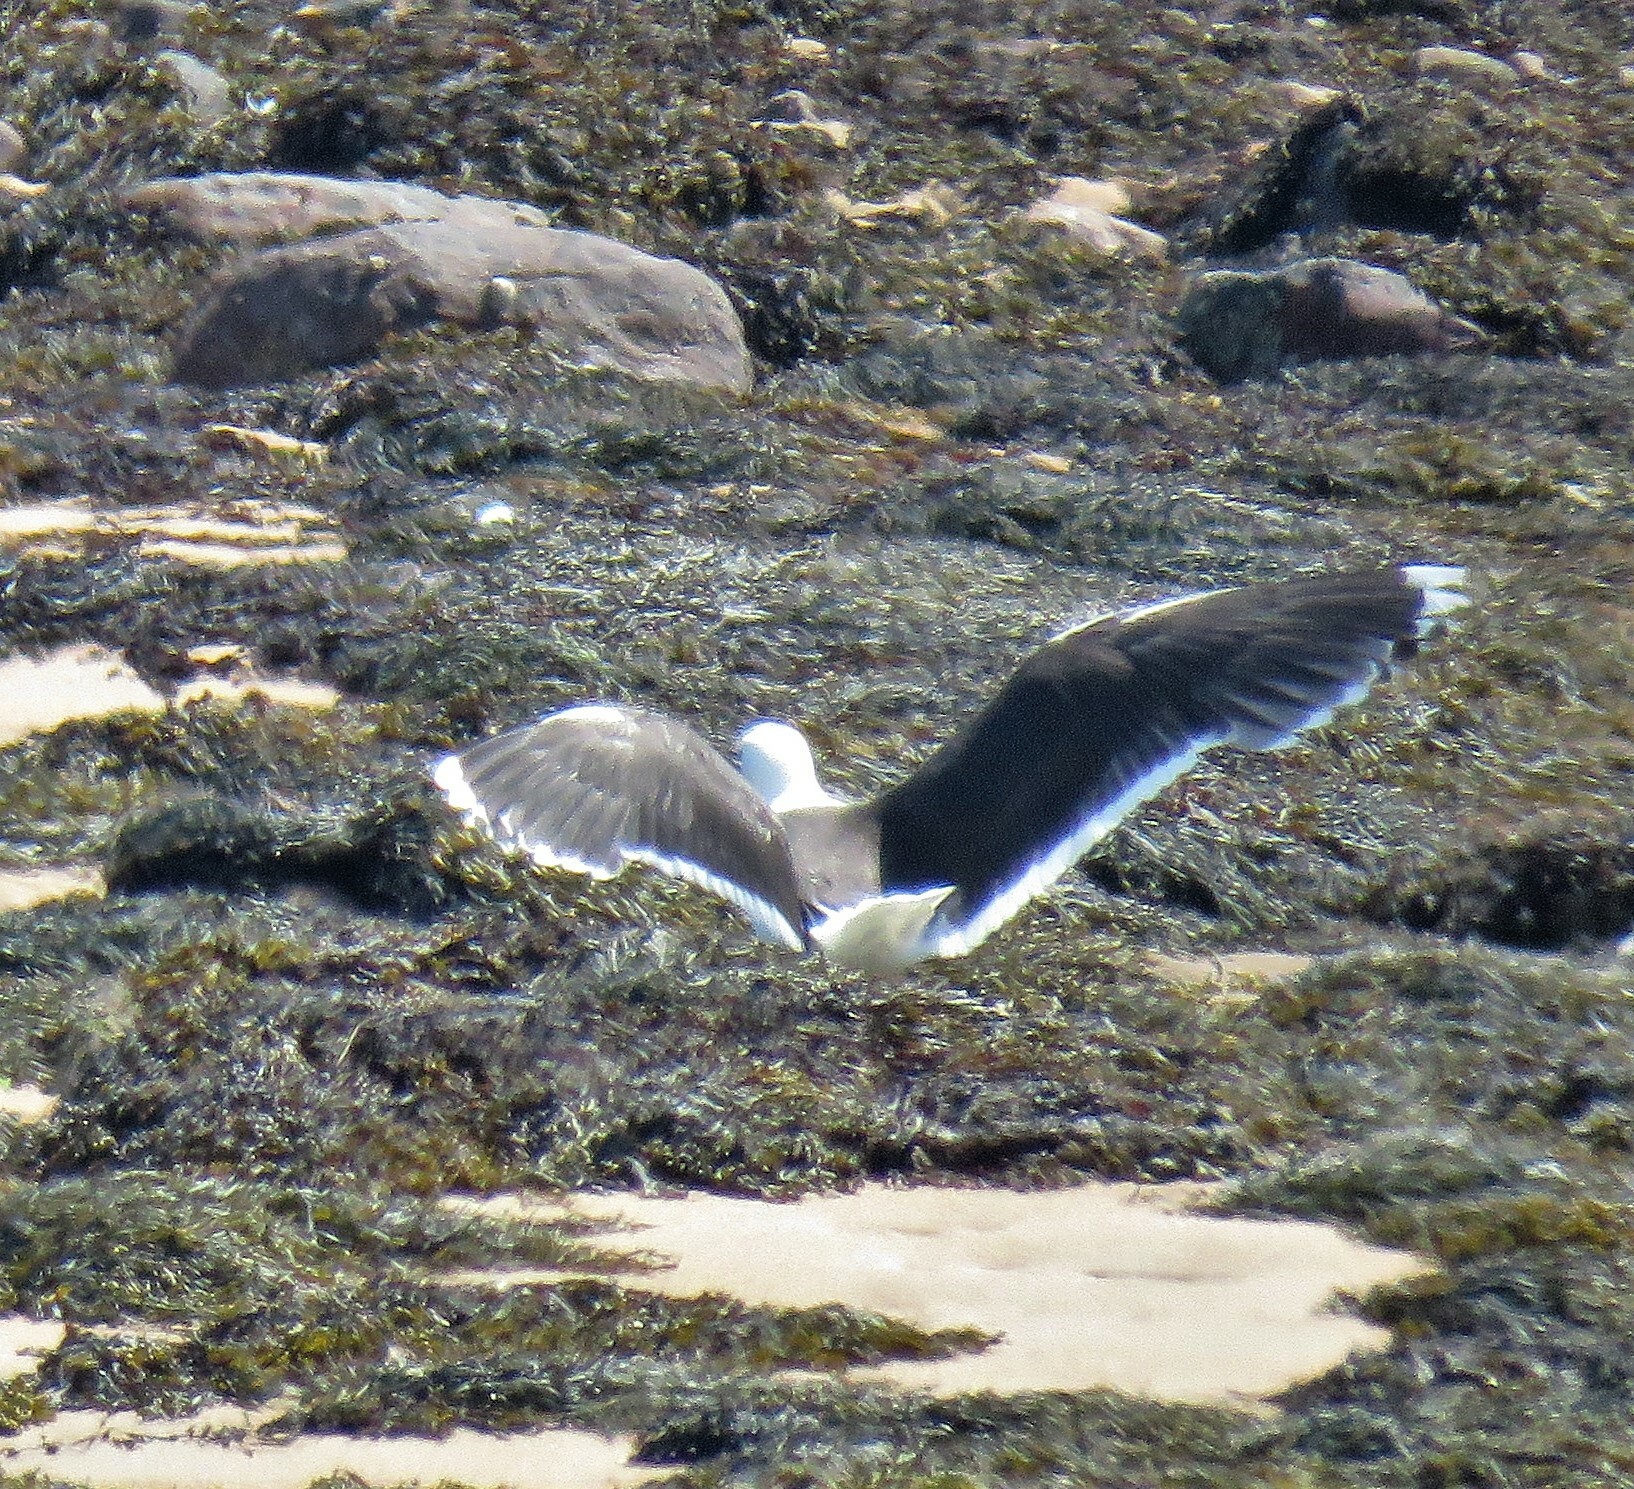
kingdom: Animalia
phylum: Chordata
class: Aves
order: Charadriiformes
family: Laridae
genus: Larus
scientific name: Larus marinus
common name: Great black-backed gull
